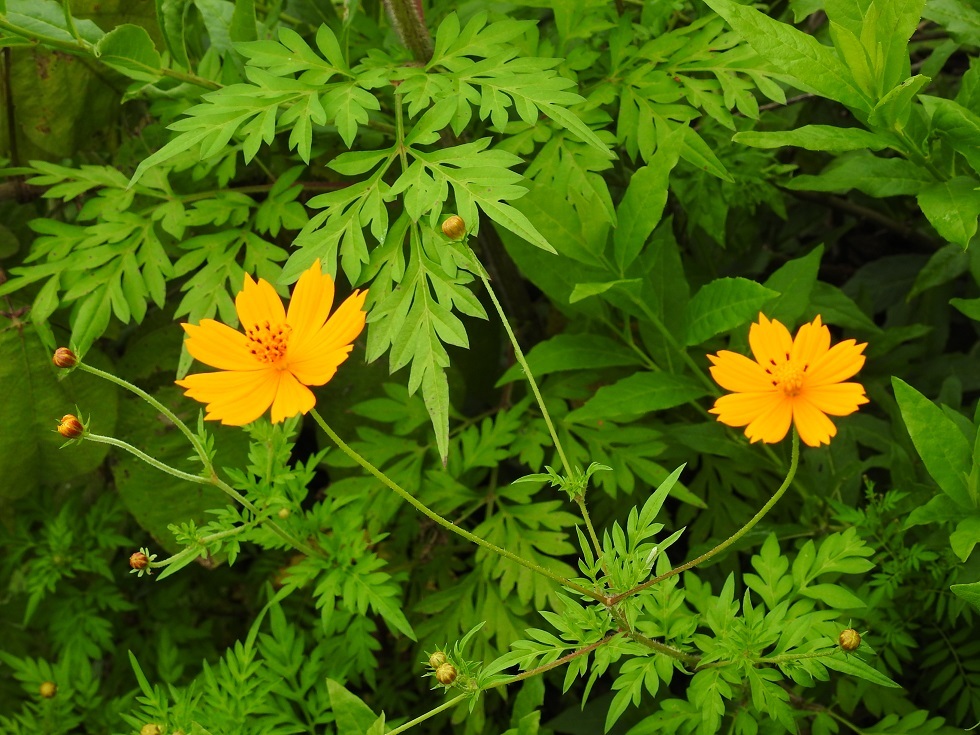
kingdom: Plantae
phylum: Tracheophyta
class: Magnoliopsida
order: Asterales
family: Asteraceae
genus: Cosmos
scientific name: Cosmos sulphureus
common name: Sulphur cosmos
